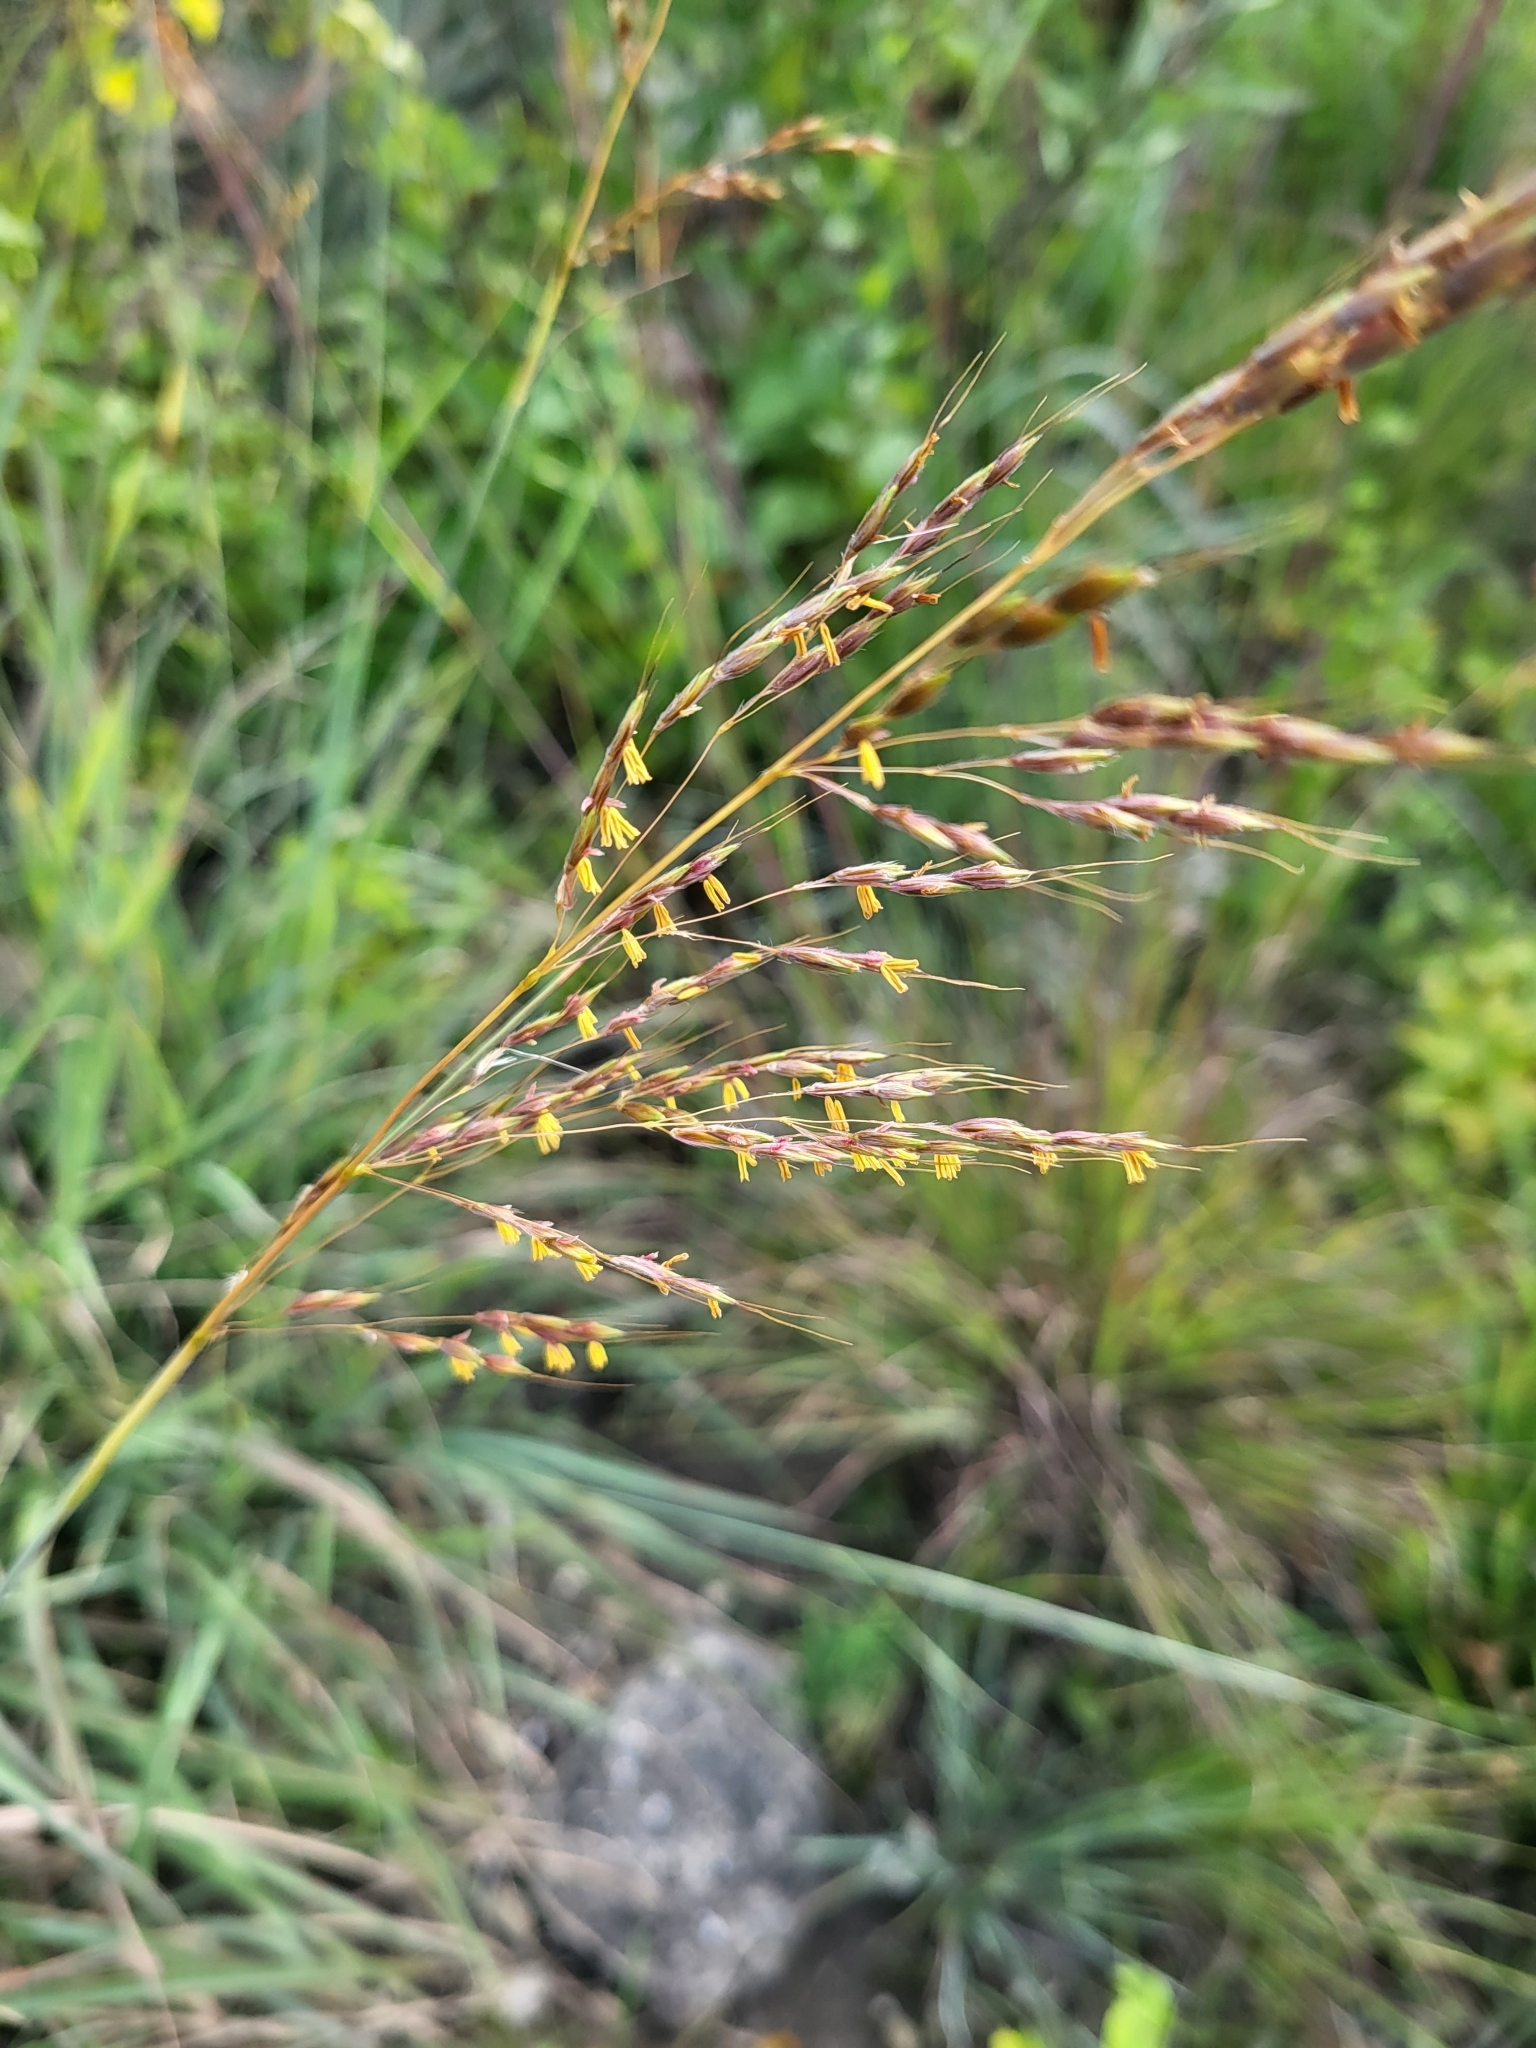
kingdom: Plantae
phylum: Tracheophyta
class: Liliopsida
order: Poales
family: Poaceae
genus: Sorghastrum
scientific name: Sorghastrum nutans
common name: Indian grass
